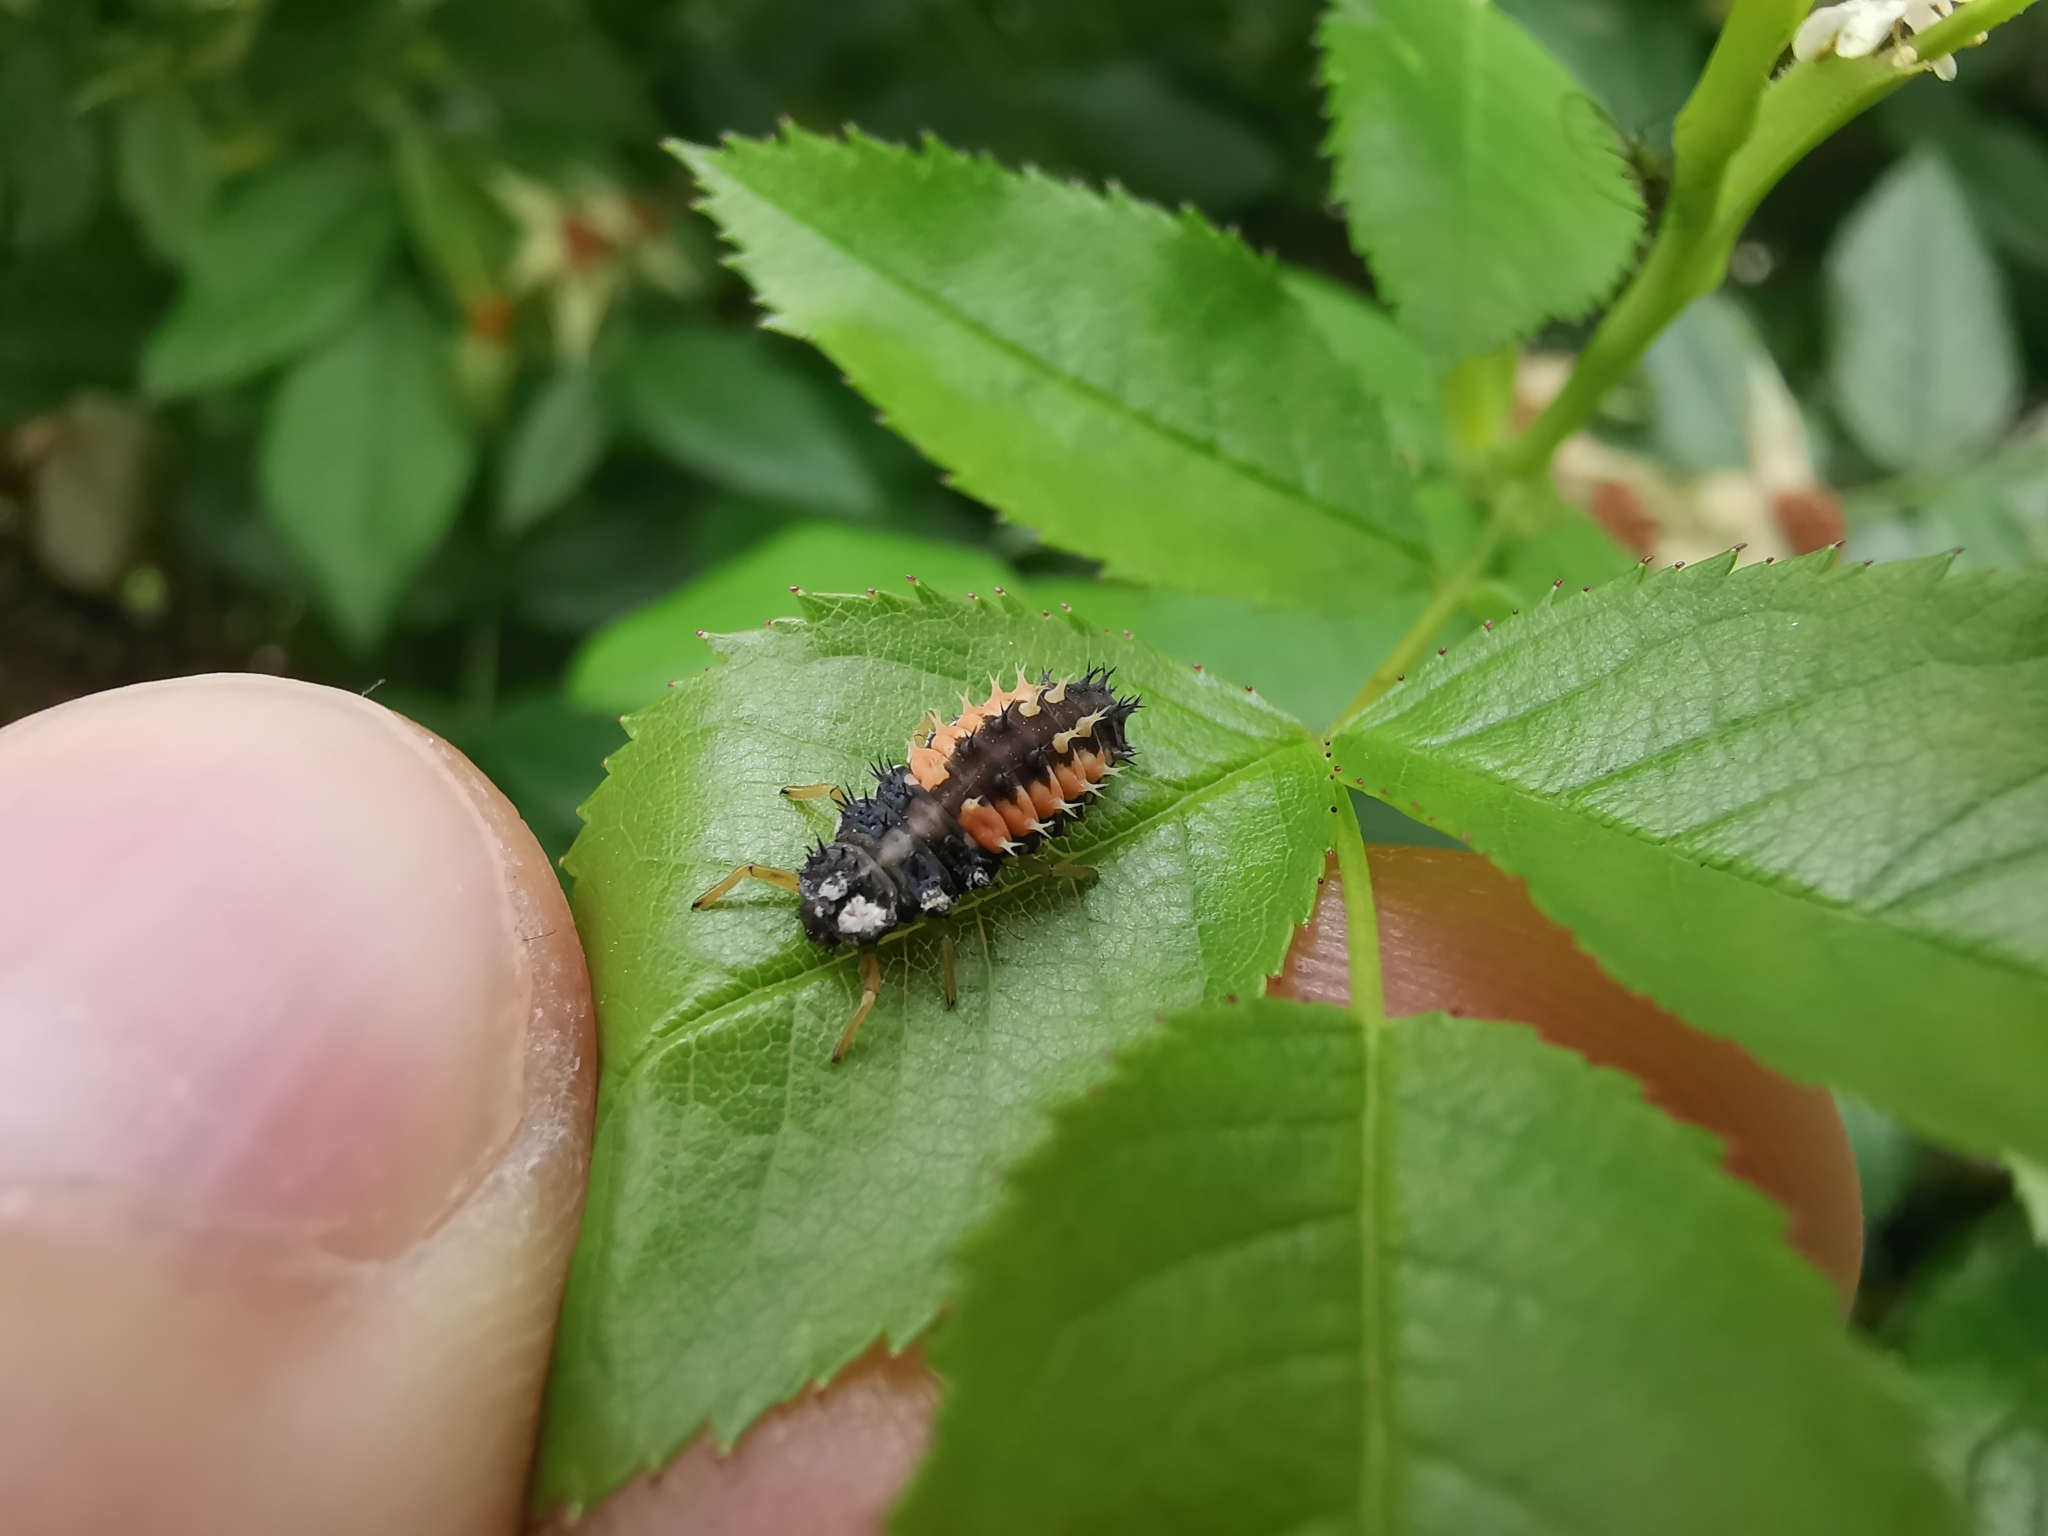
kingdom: Animalia
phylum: Arthropoda
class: Insecta
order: Coleoptera
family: Coccinellidae
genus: Harmonia
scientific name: Harmonia axyridis
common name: Harlequin ladybird
